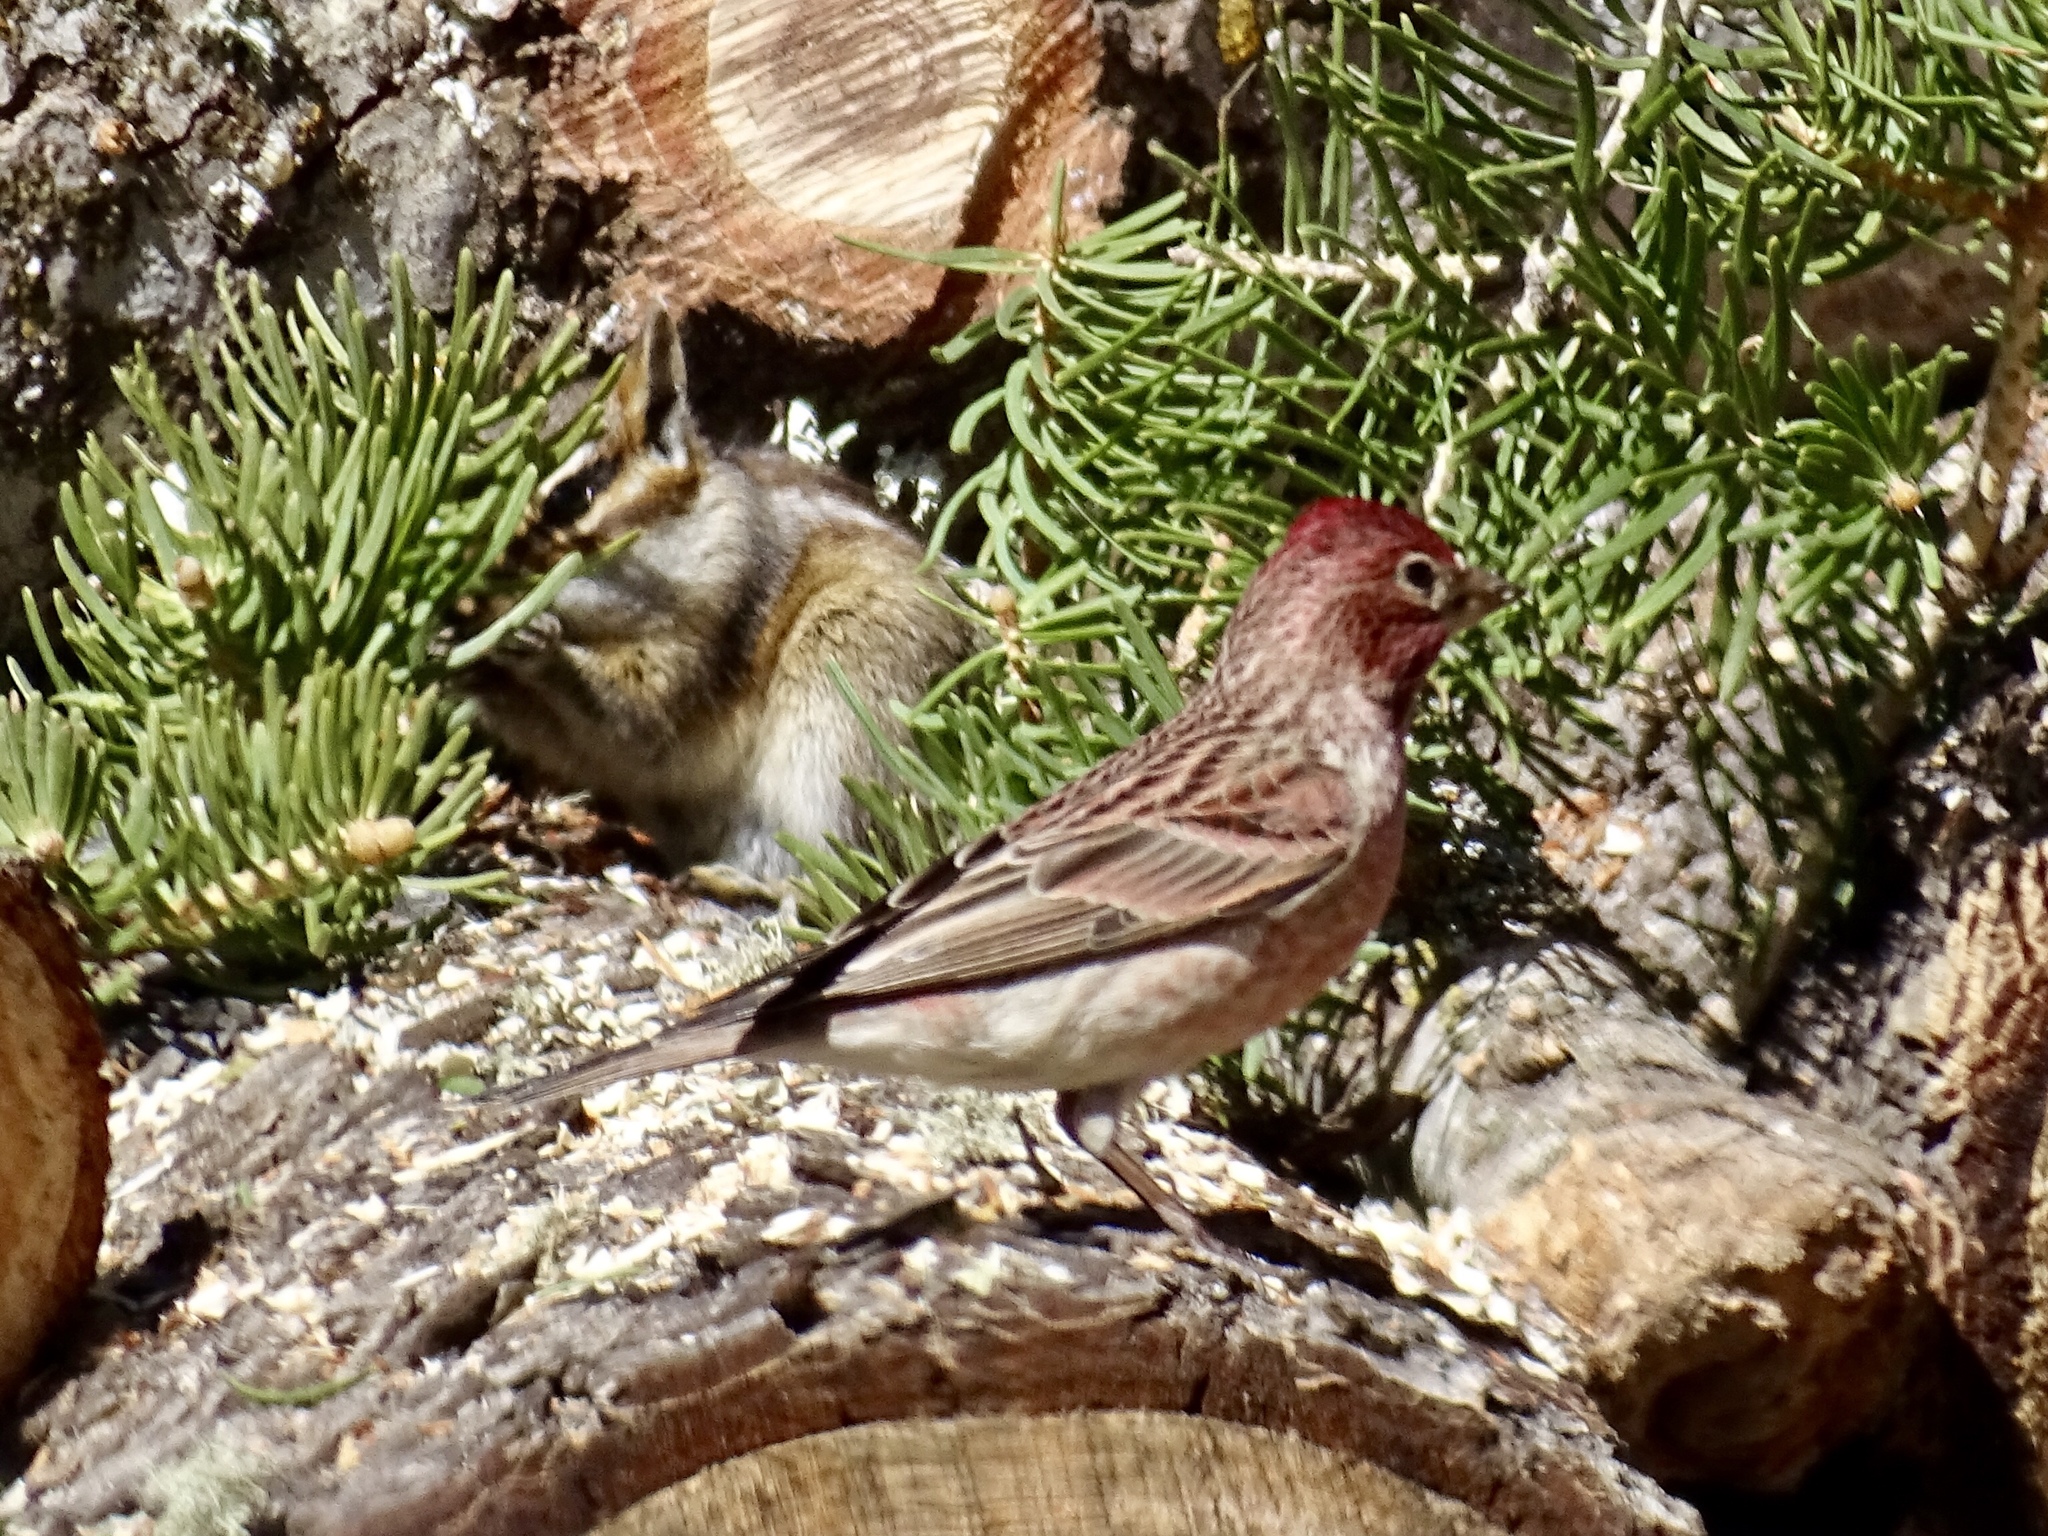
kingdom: Animalia
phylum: Chordata
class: Aves
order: Passeriformes
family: Fringillidae
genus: Haemorhous
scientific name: Haemorhous cassinii
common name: Cassin's finch
